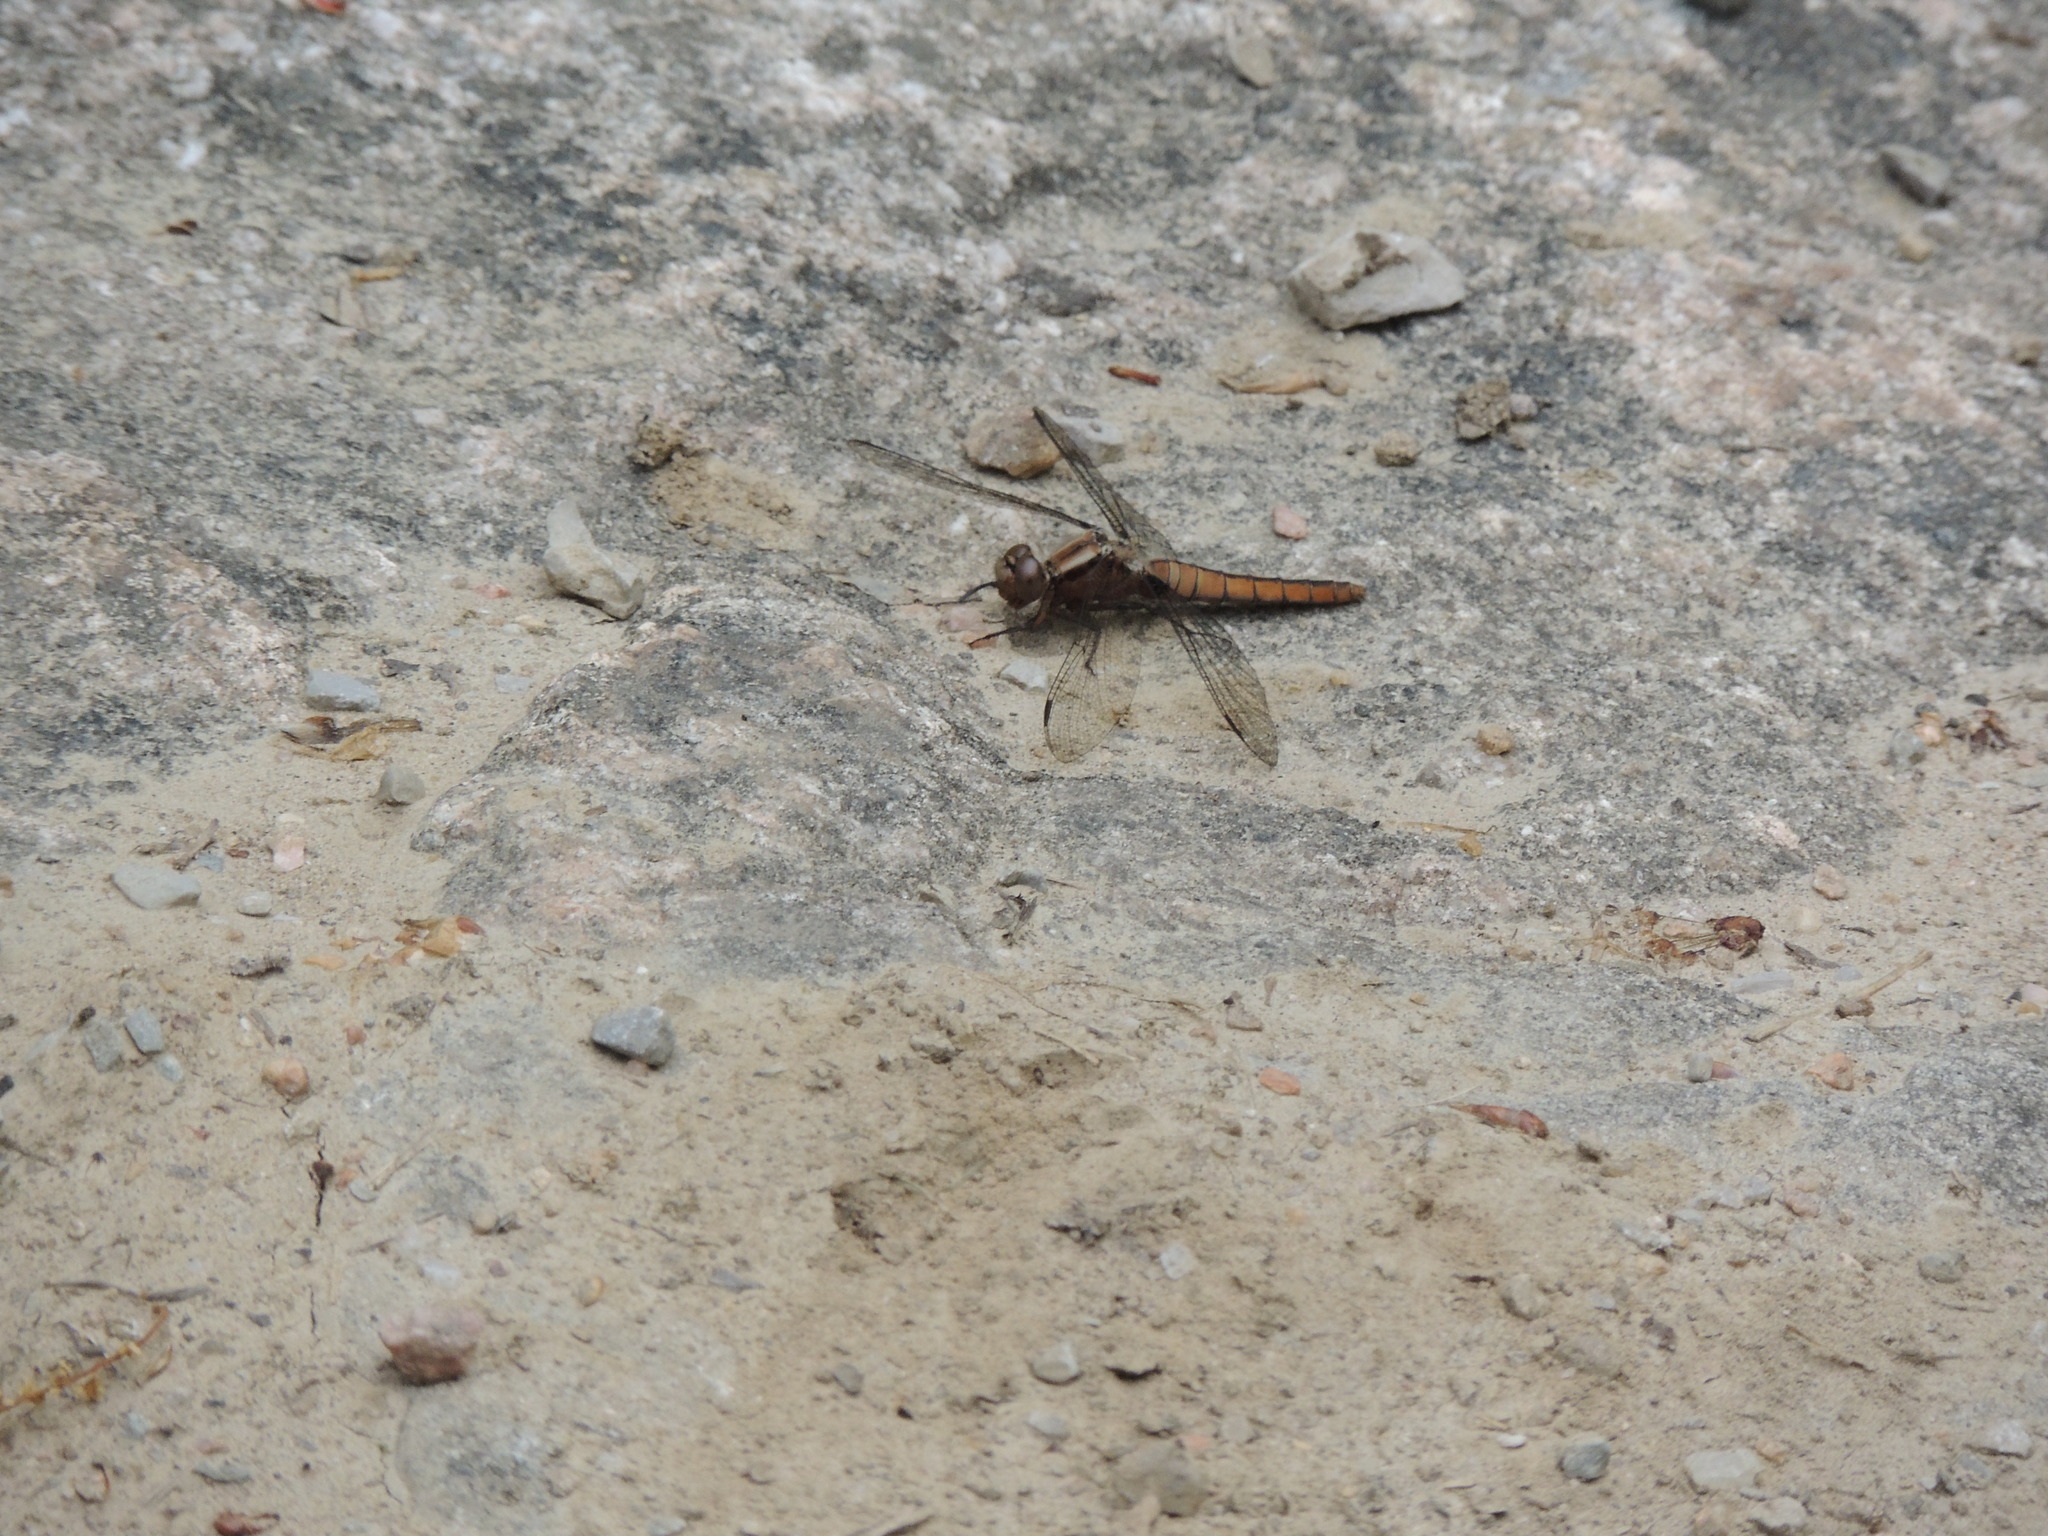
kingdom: Animalia
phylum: Arthropoda
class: Insecta
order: Odonata
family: Libellulidae
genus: Ladona
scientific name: Ladona julia
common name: Chalk-fronted corporal
